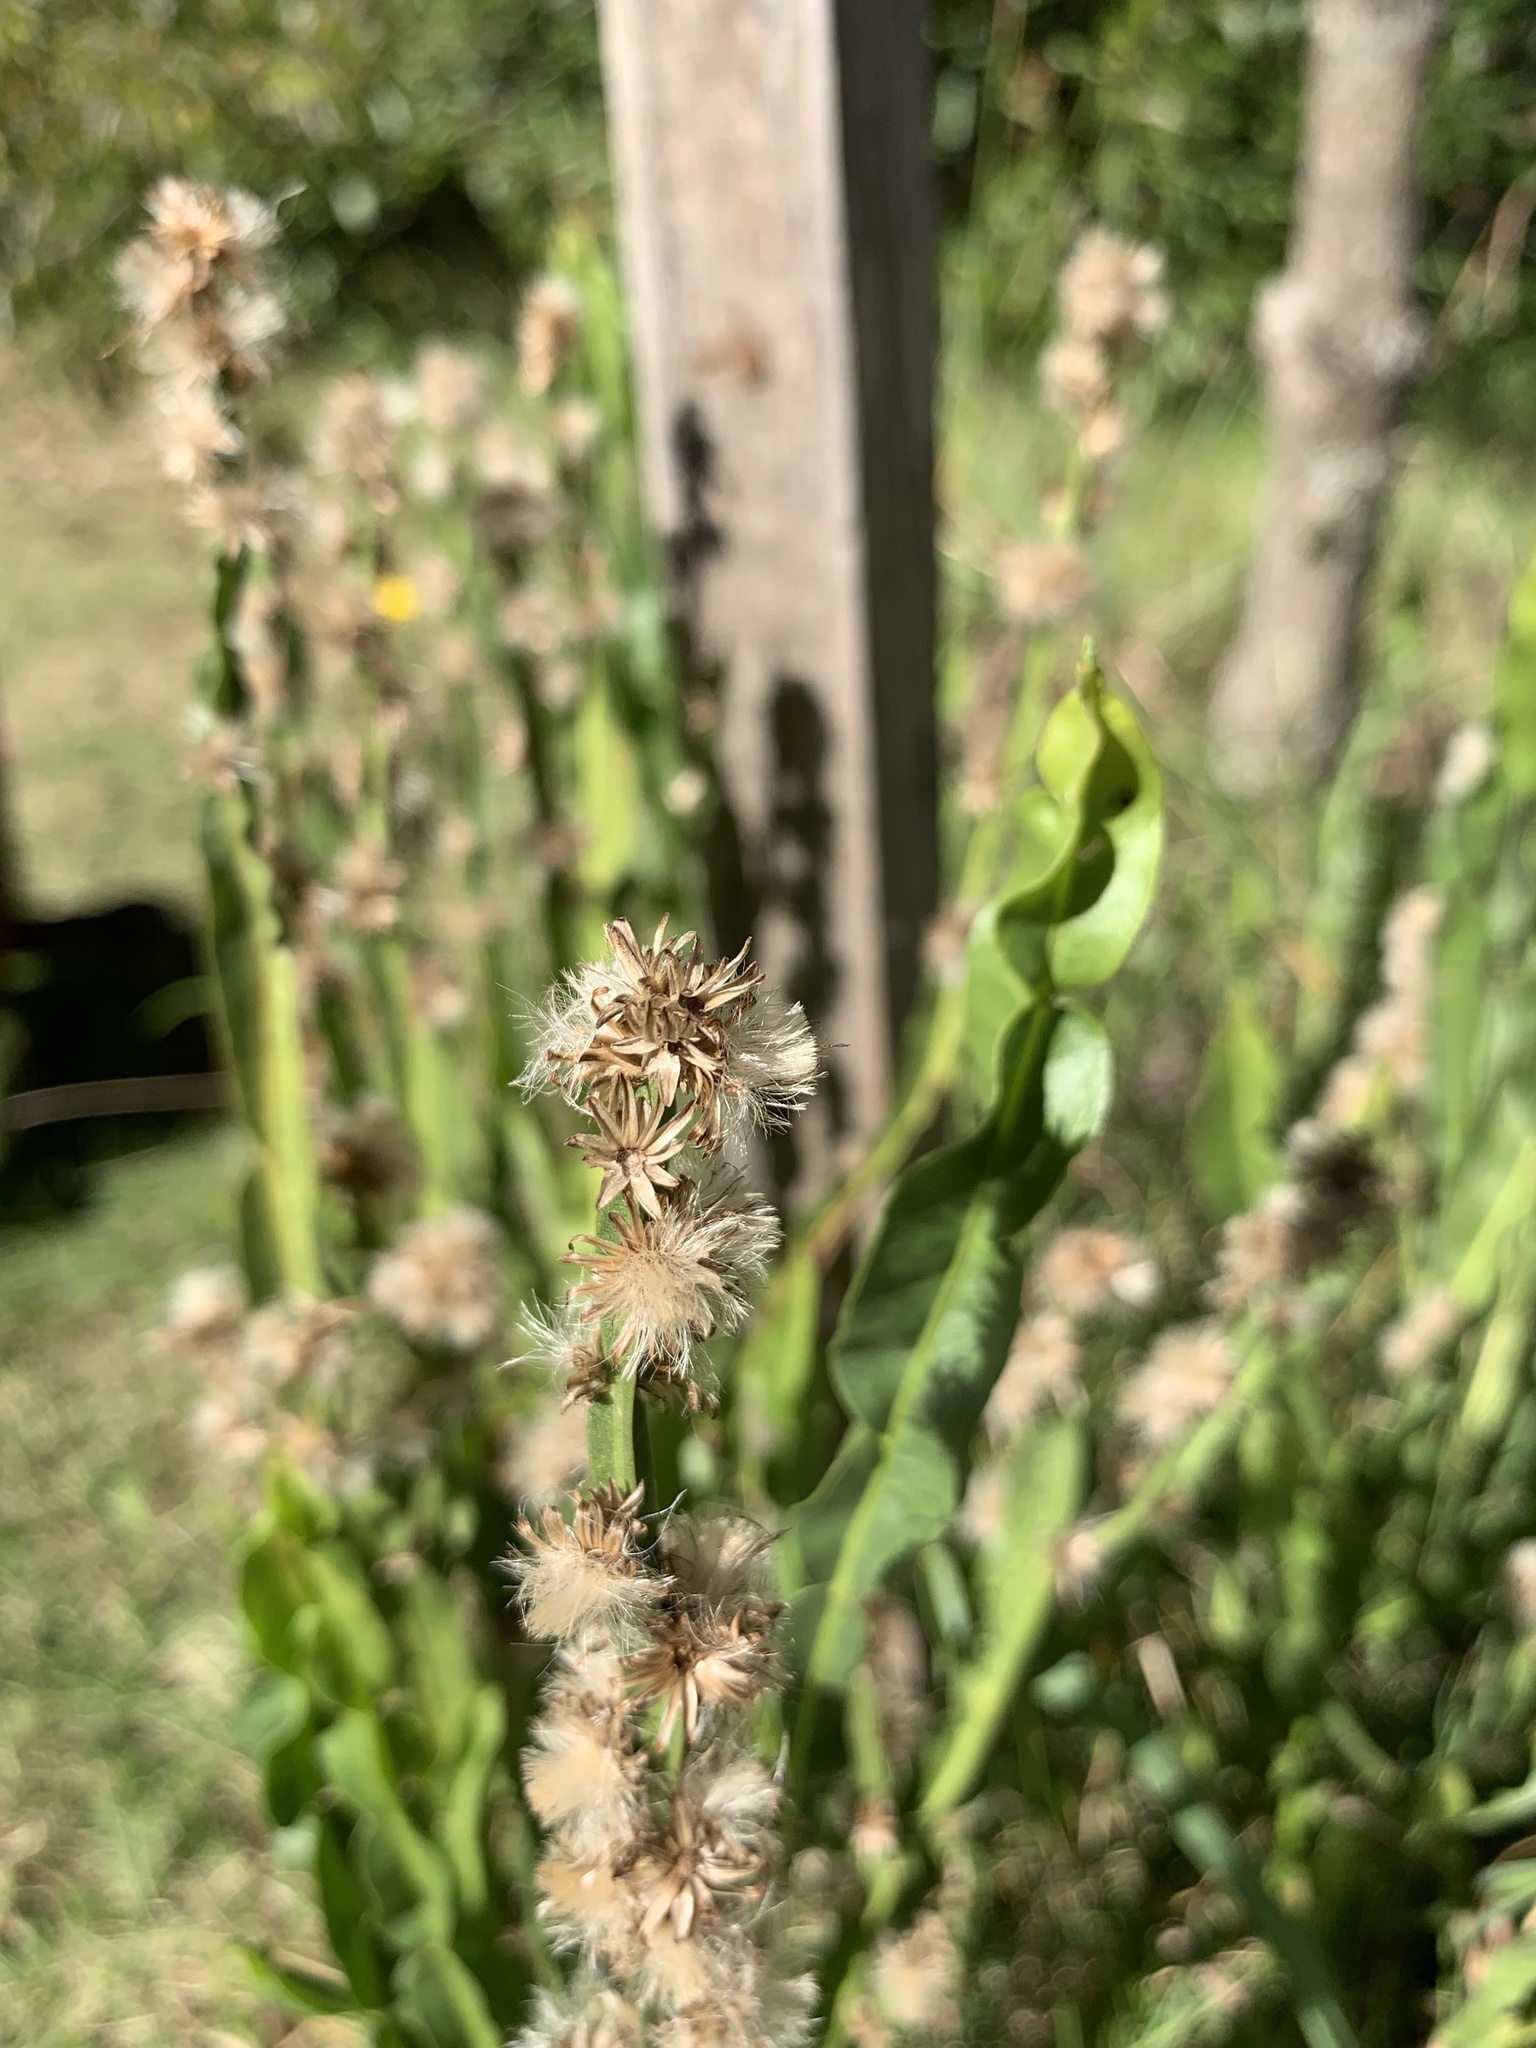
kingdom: Plantae
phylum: Tracheophyta
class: Magnoliopsida
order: Asterales
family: Asteraceae
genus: Baccharis
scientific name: Baccharis trimera
